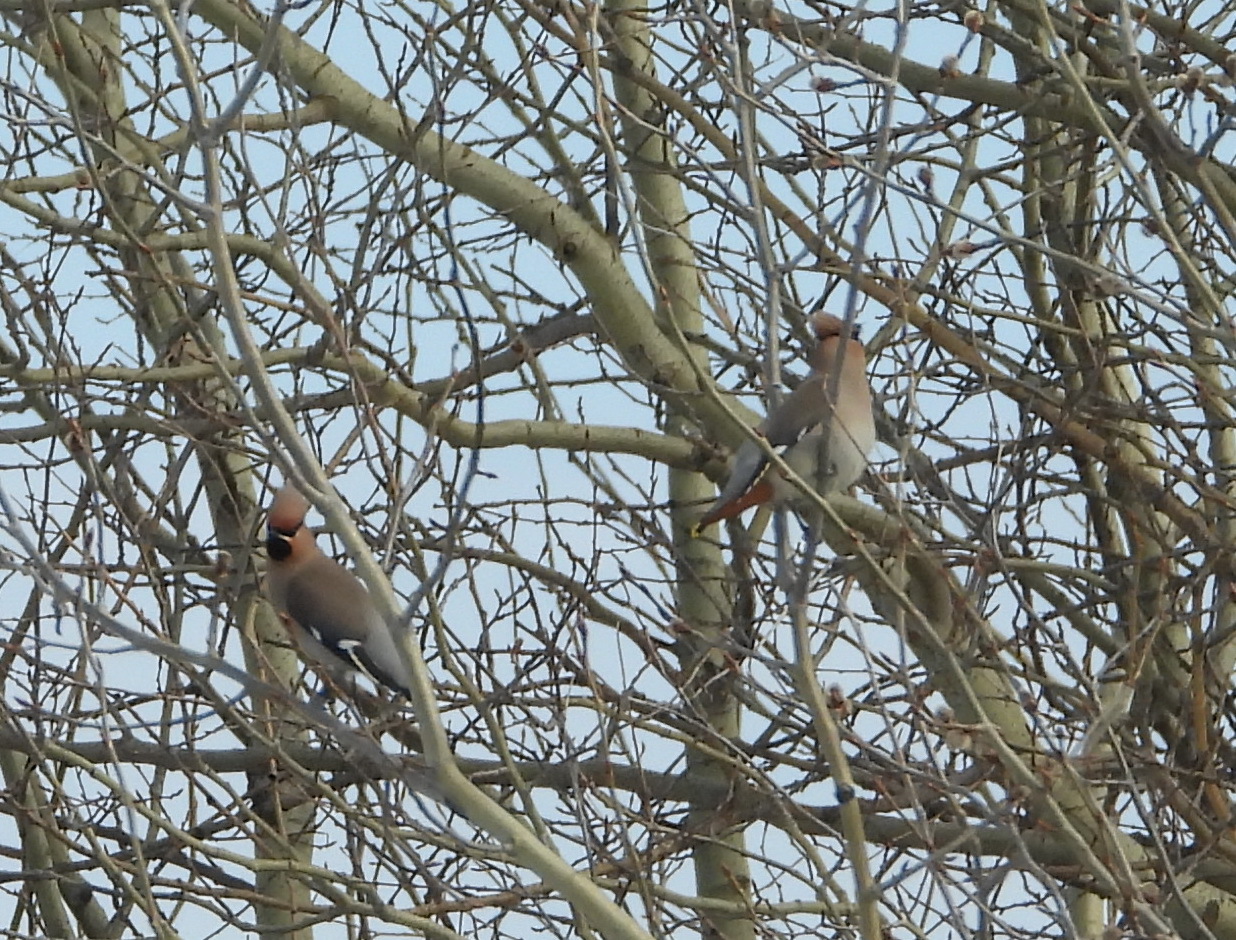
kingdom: Animalia
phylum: Chordata
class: Aves
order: Passeriformes
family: Bombycillidae
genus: Bombycilla
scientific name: Bombycilla garrulus
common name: Bohemian waxwing
